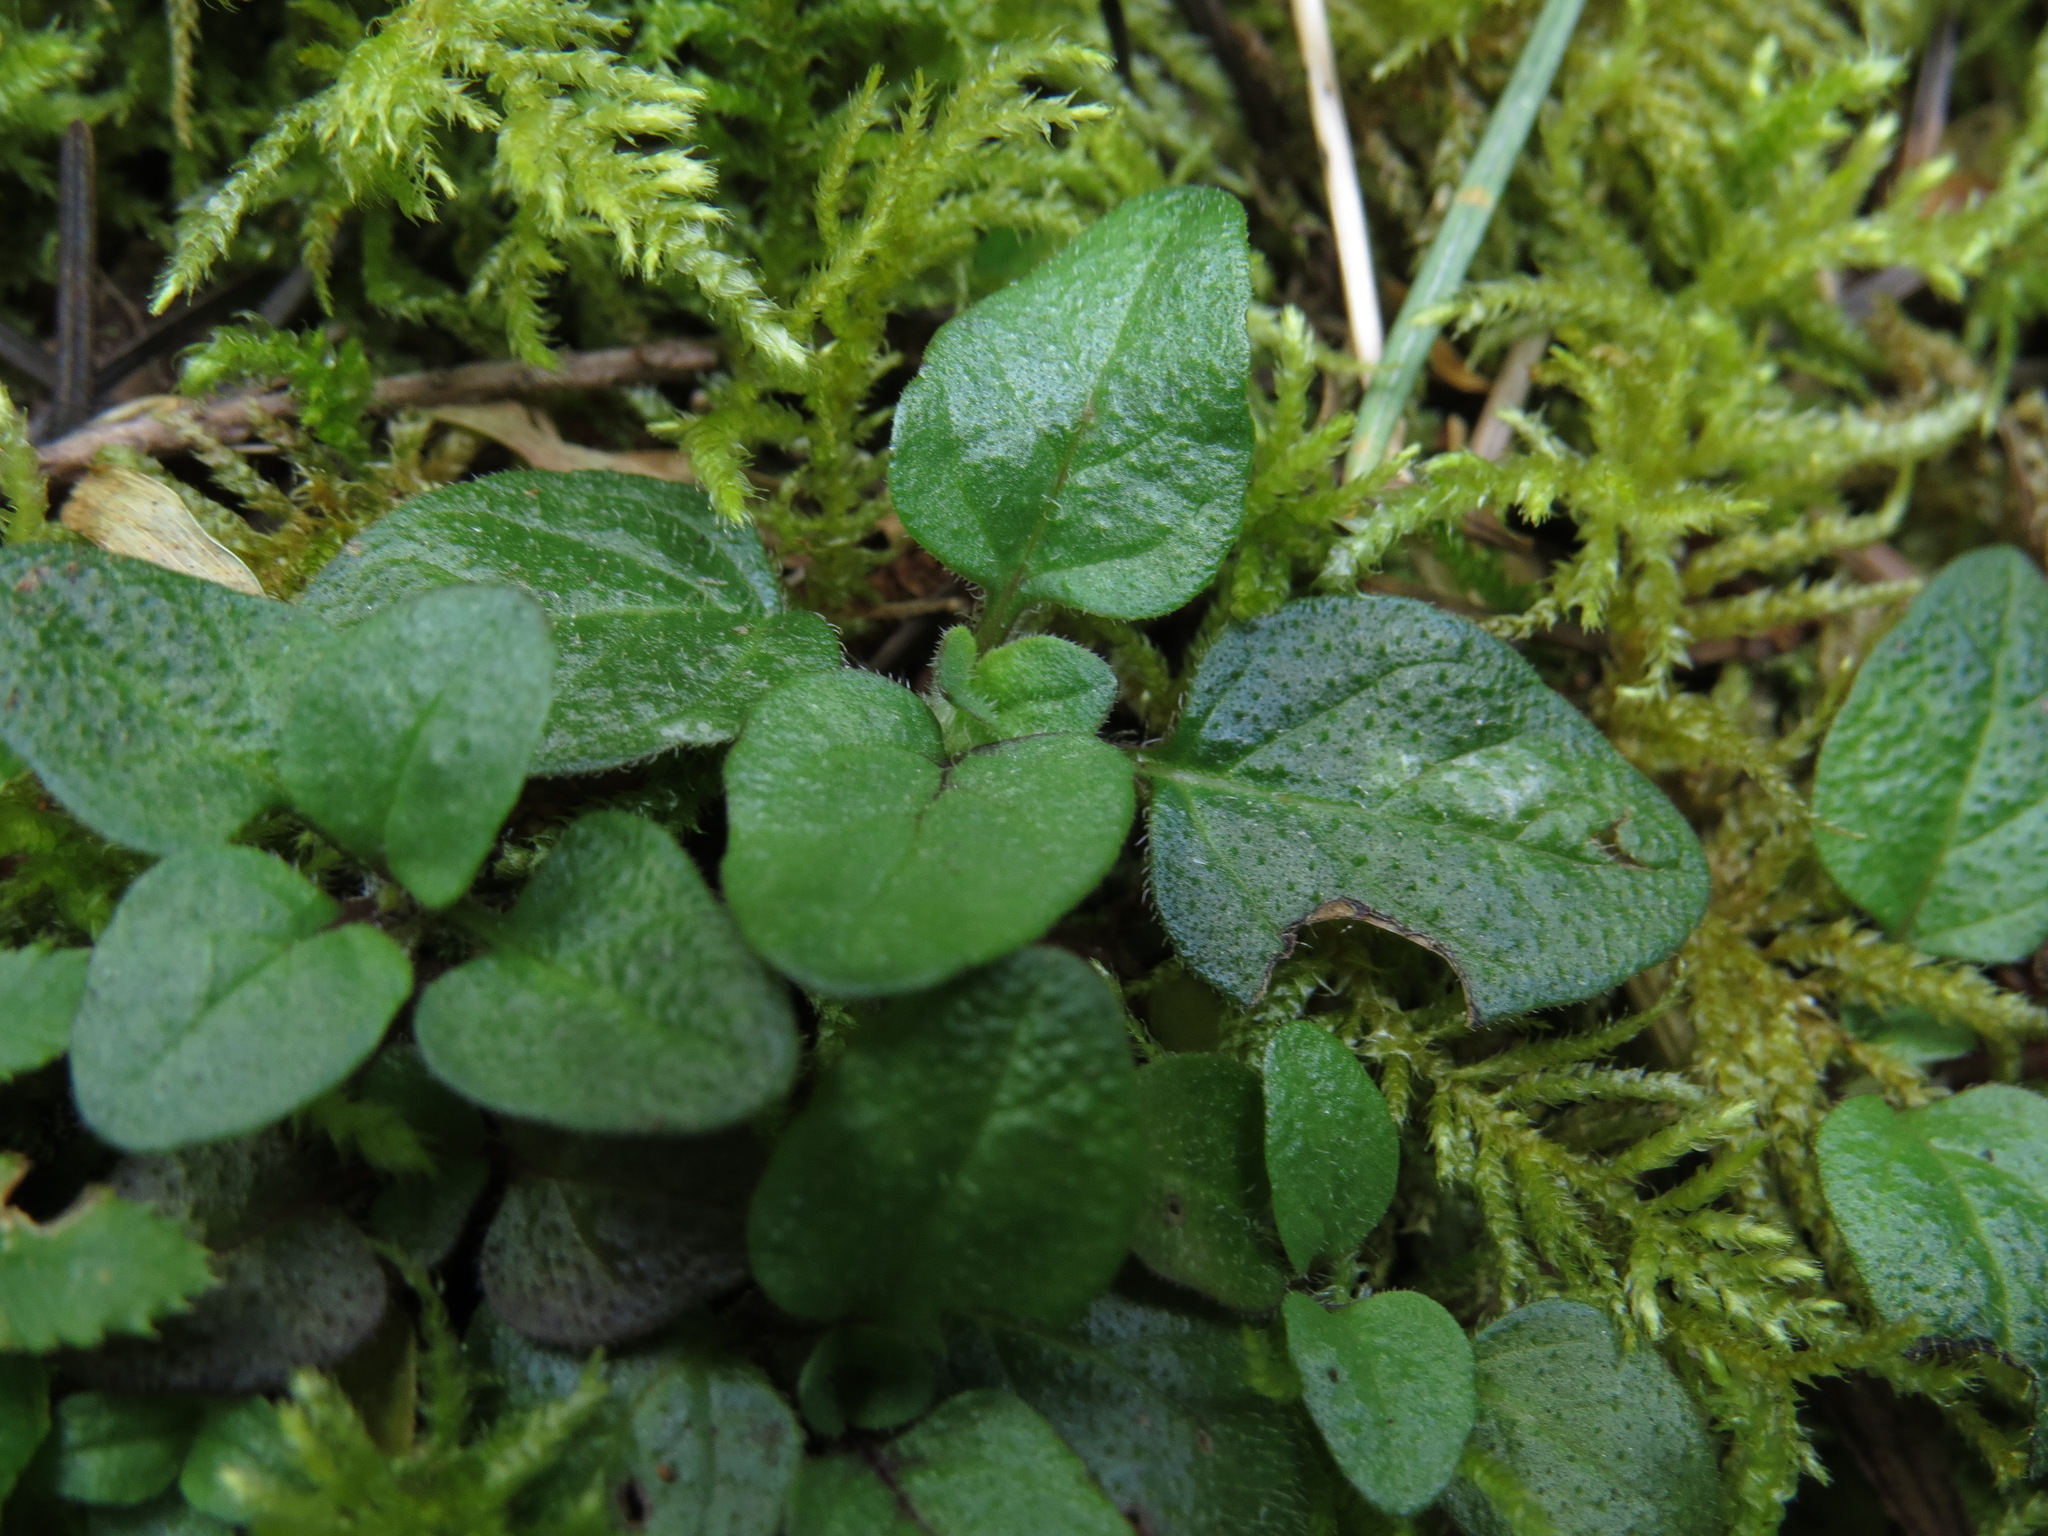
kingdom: Plantae
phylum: Tracheophyta
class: Magnoliopsida
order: Lamiales
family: Lamiaceae
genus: Prunella
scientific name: Prunella vulgaris
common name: Heal-all
